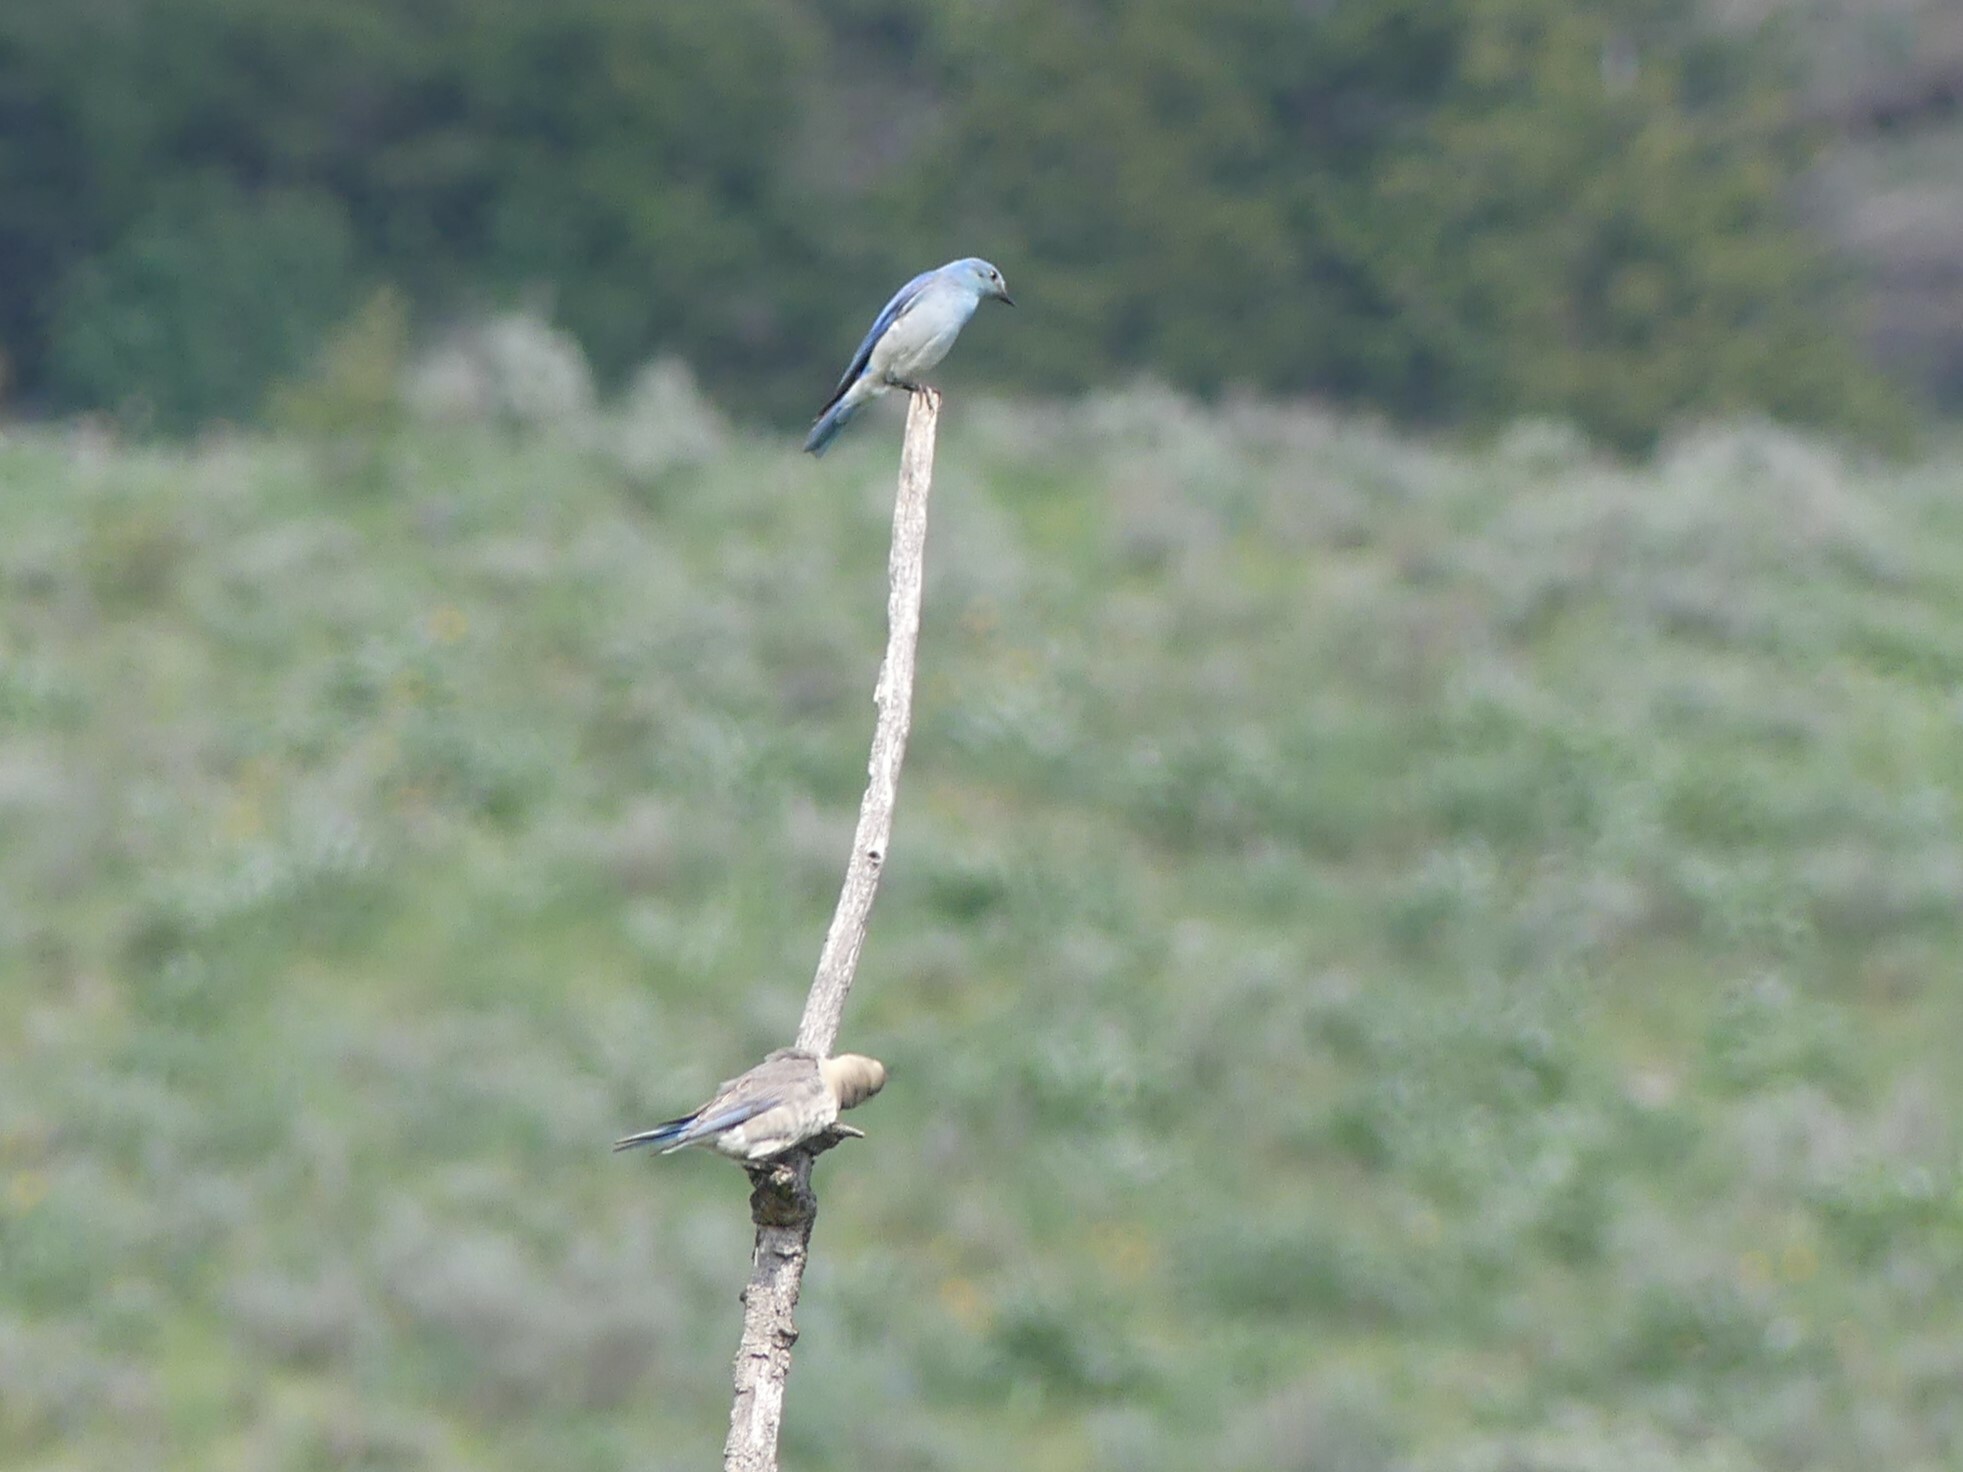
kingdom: Animalia
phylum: Chordata
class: Aves
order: Passeriformes
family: Turdidae
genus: Sialia
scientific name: Sialia currucoides
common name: Mountain bluebird
